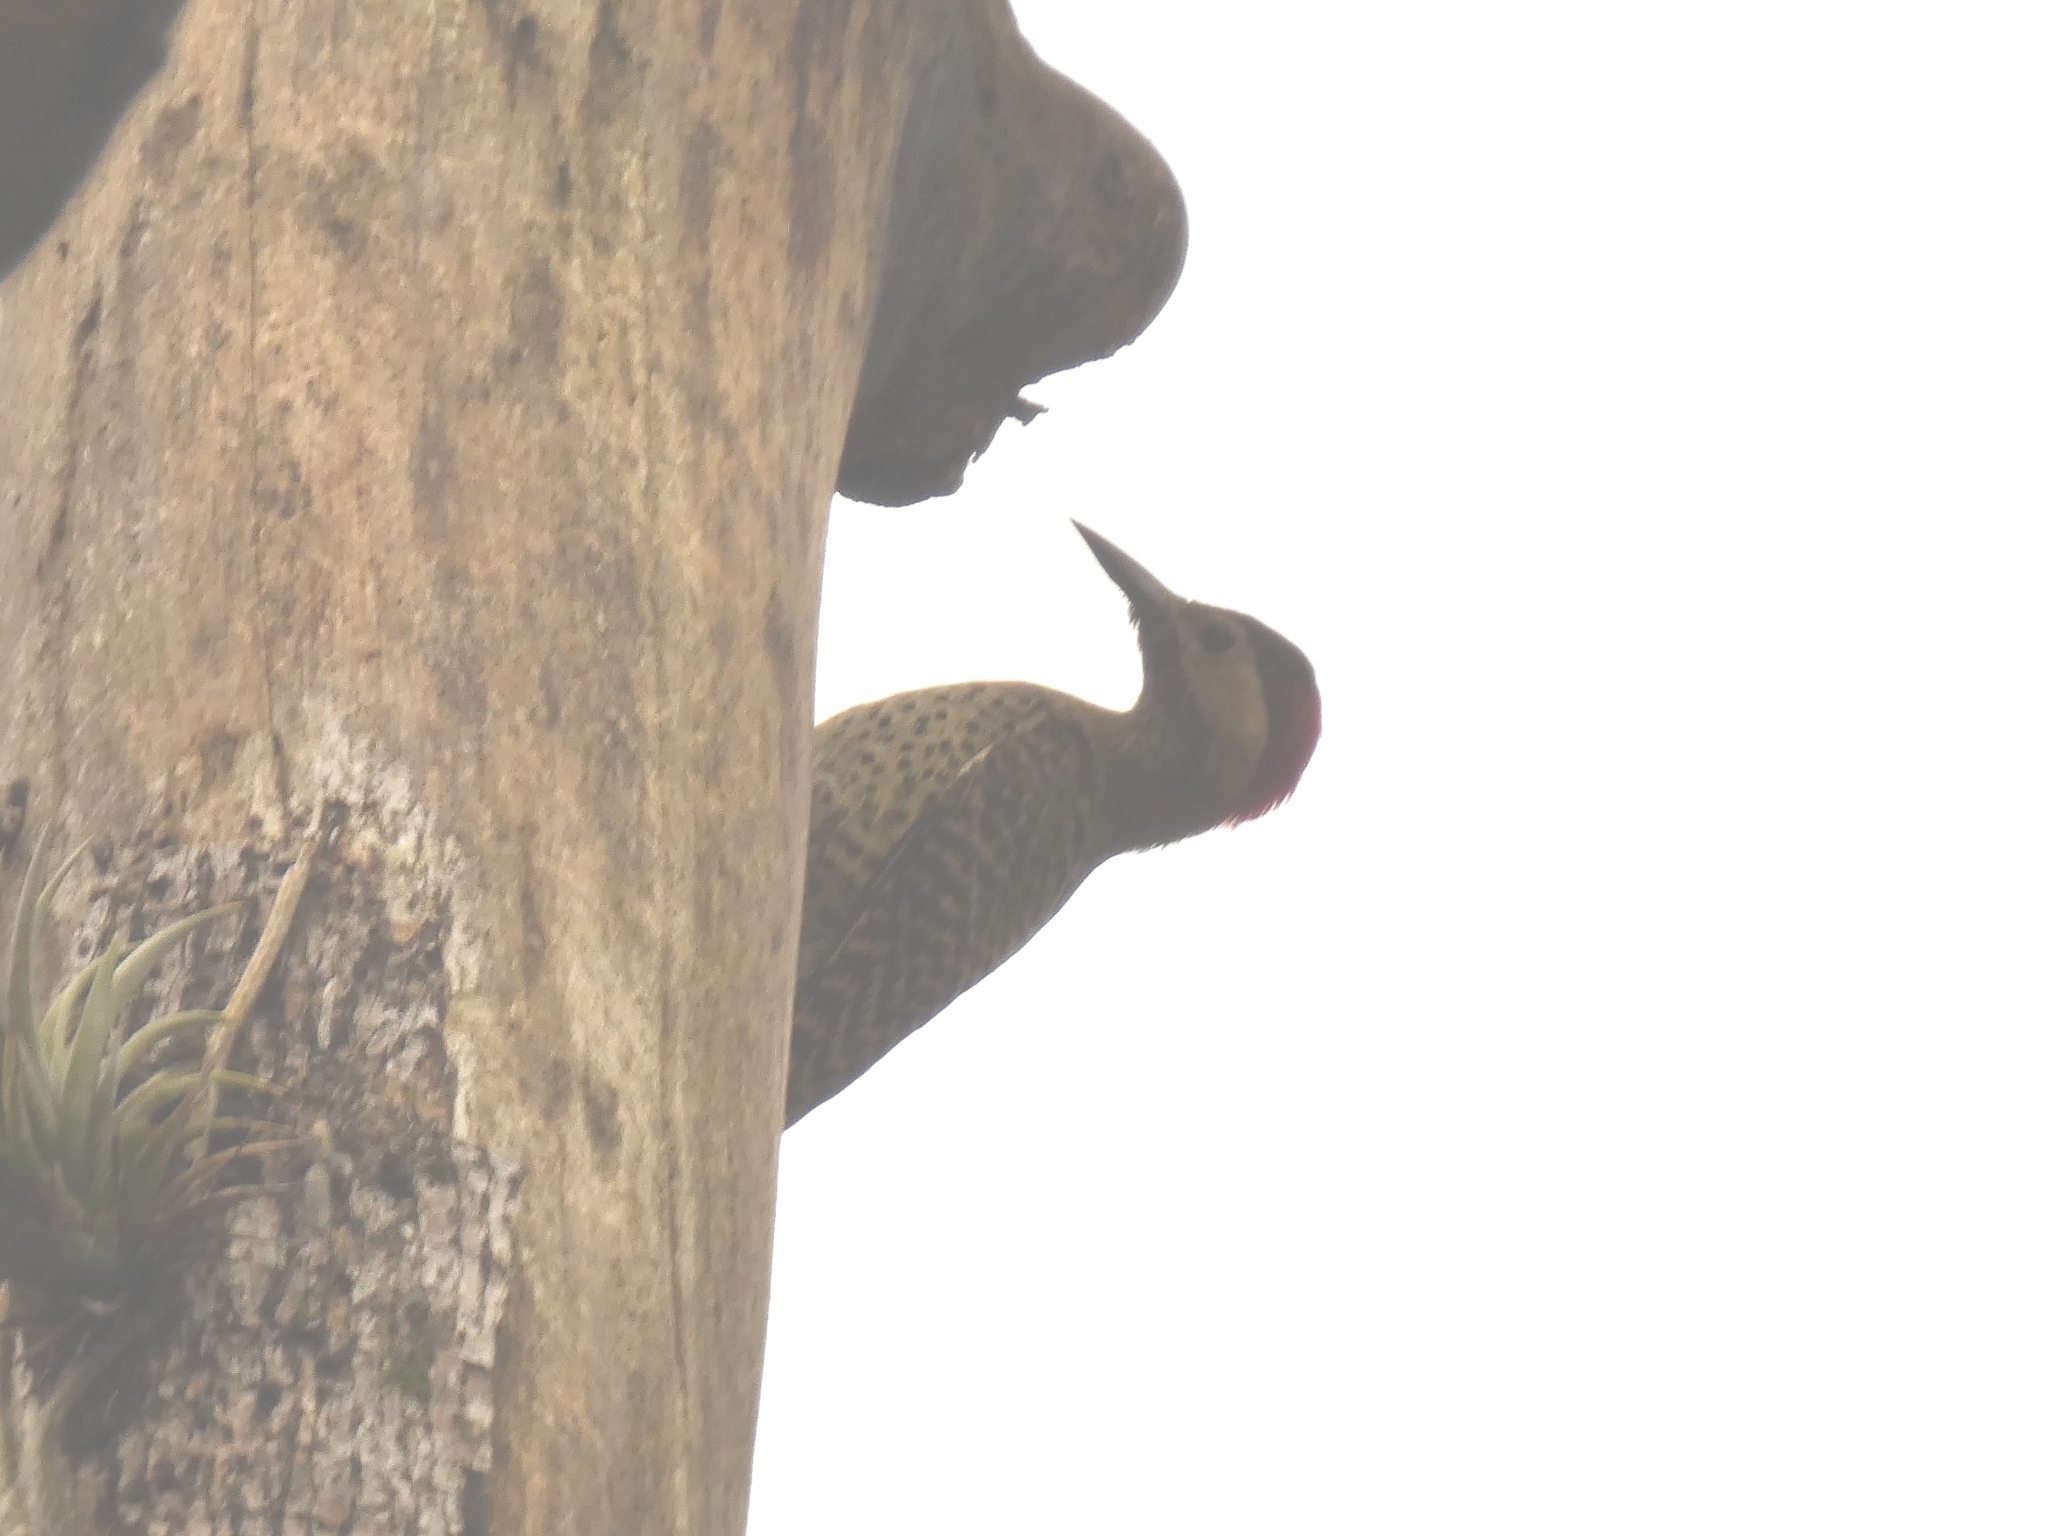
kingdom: Animalia
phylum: Chordata
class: Aves
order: Piciformes
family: Picidae
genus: Colaptes
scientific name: Colaptes melanochloros
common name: Green-barred woodpecker
